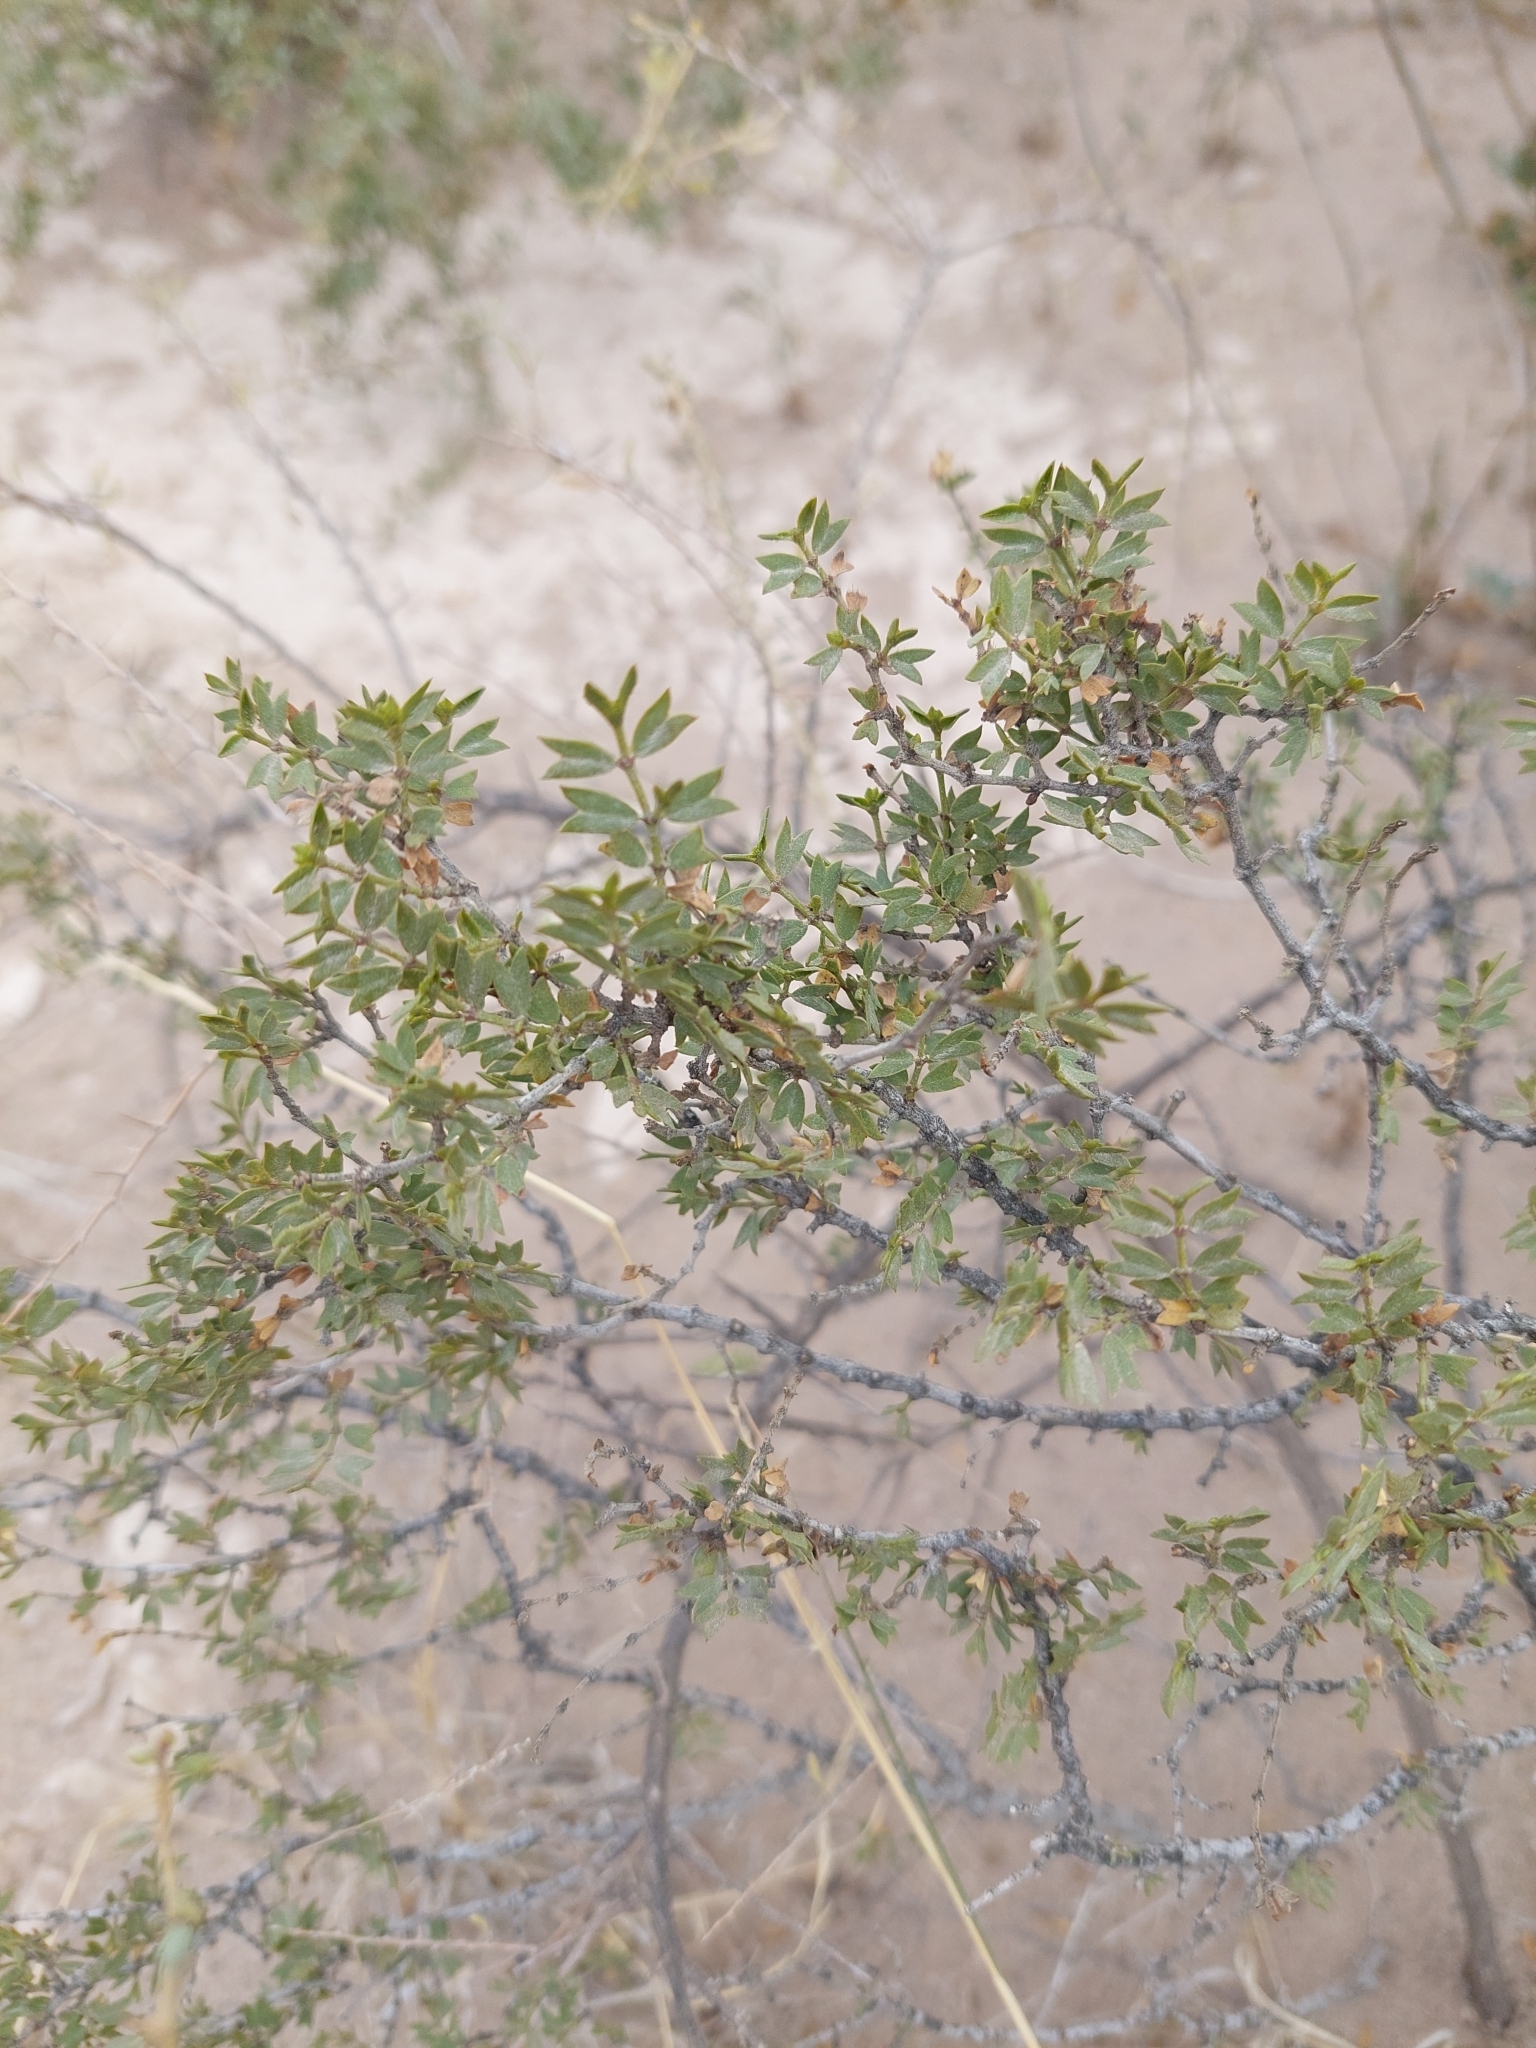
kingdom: Plantae
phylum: Tracheophyta
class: Magnoliopsida
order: Zygophyllales
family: Zygophyllaceae
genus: Larrea
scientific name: Larrea cuneifolia
